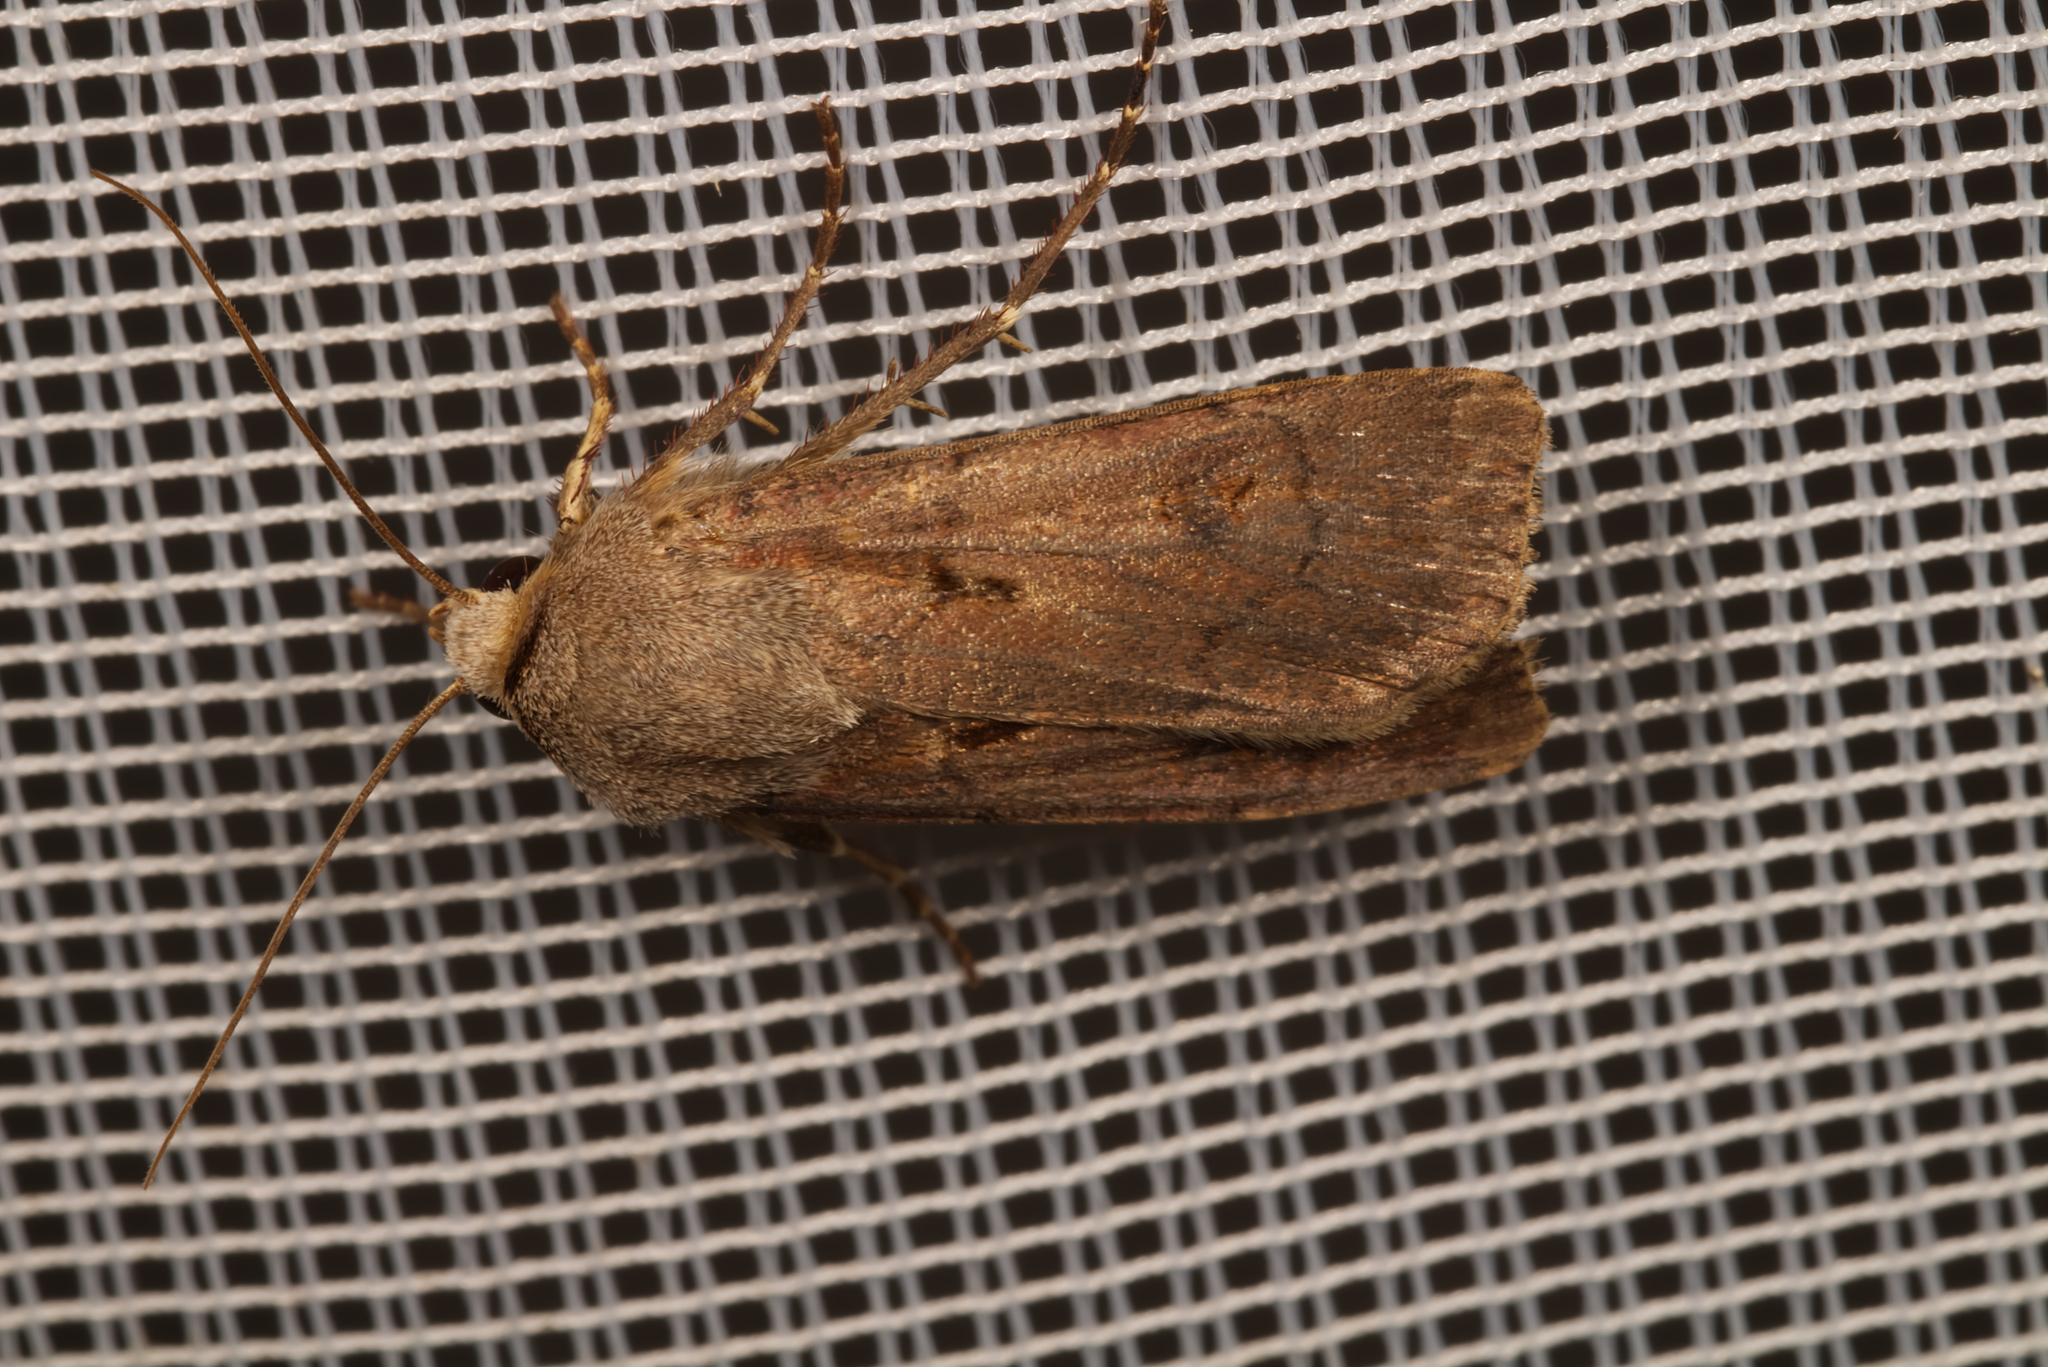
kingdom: Animalia
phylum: Arthropoda
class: Insecta
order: Lepidoptera
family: Noctuidae
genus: Agrotis
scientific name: Agrotis exclamationis
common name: Heart and dart
